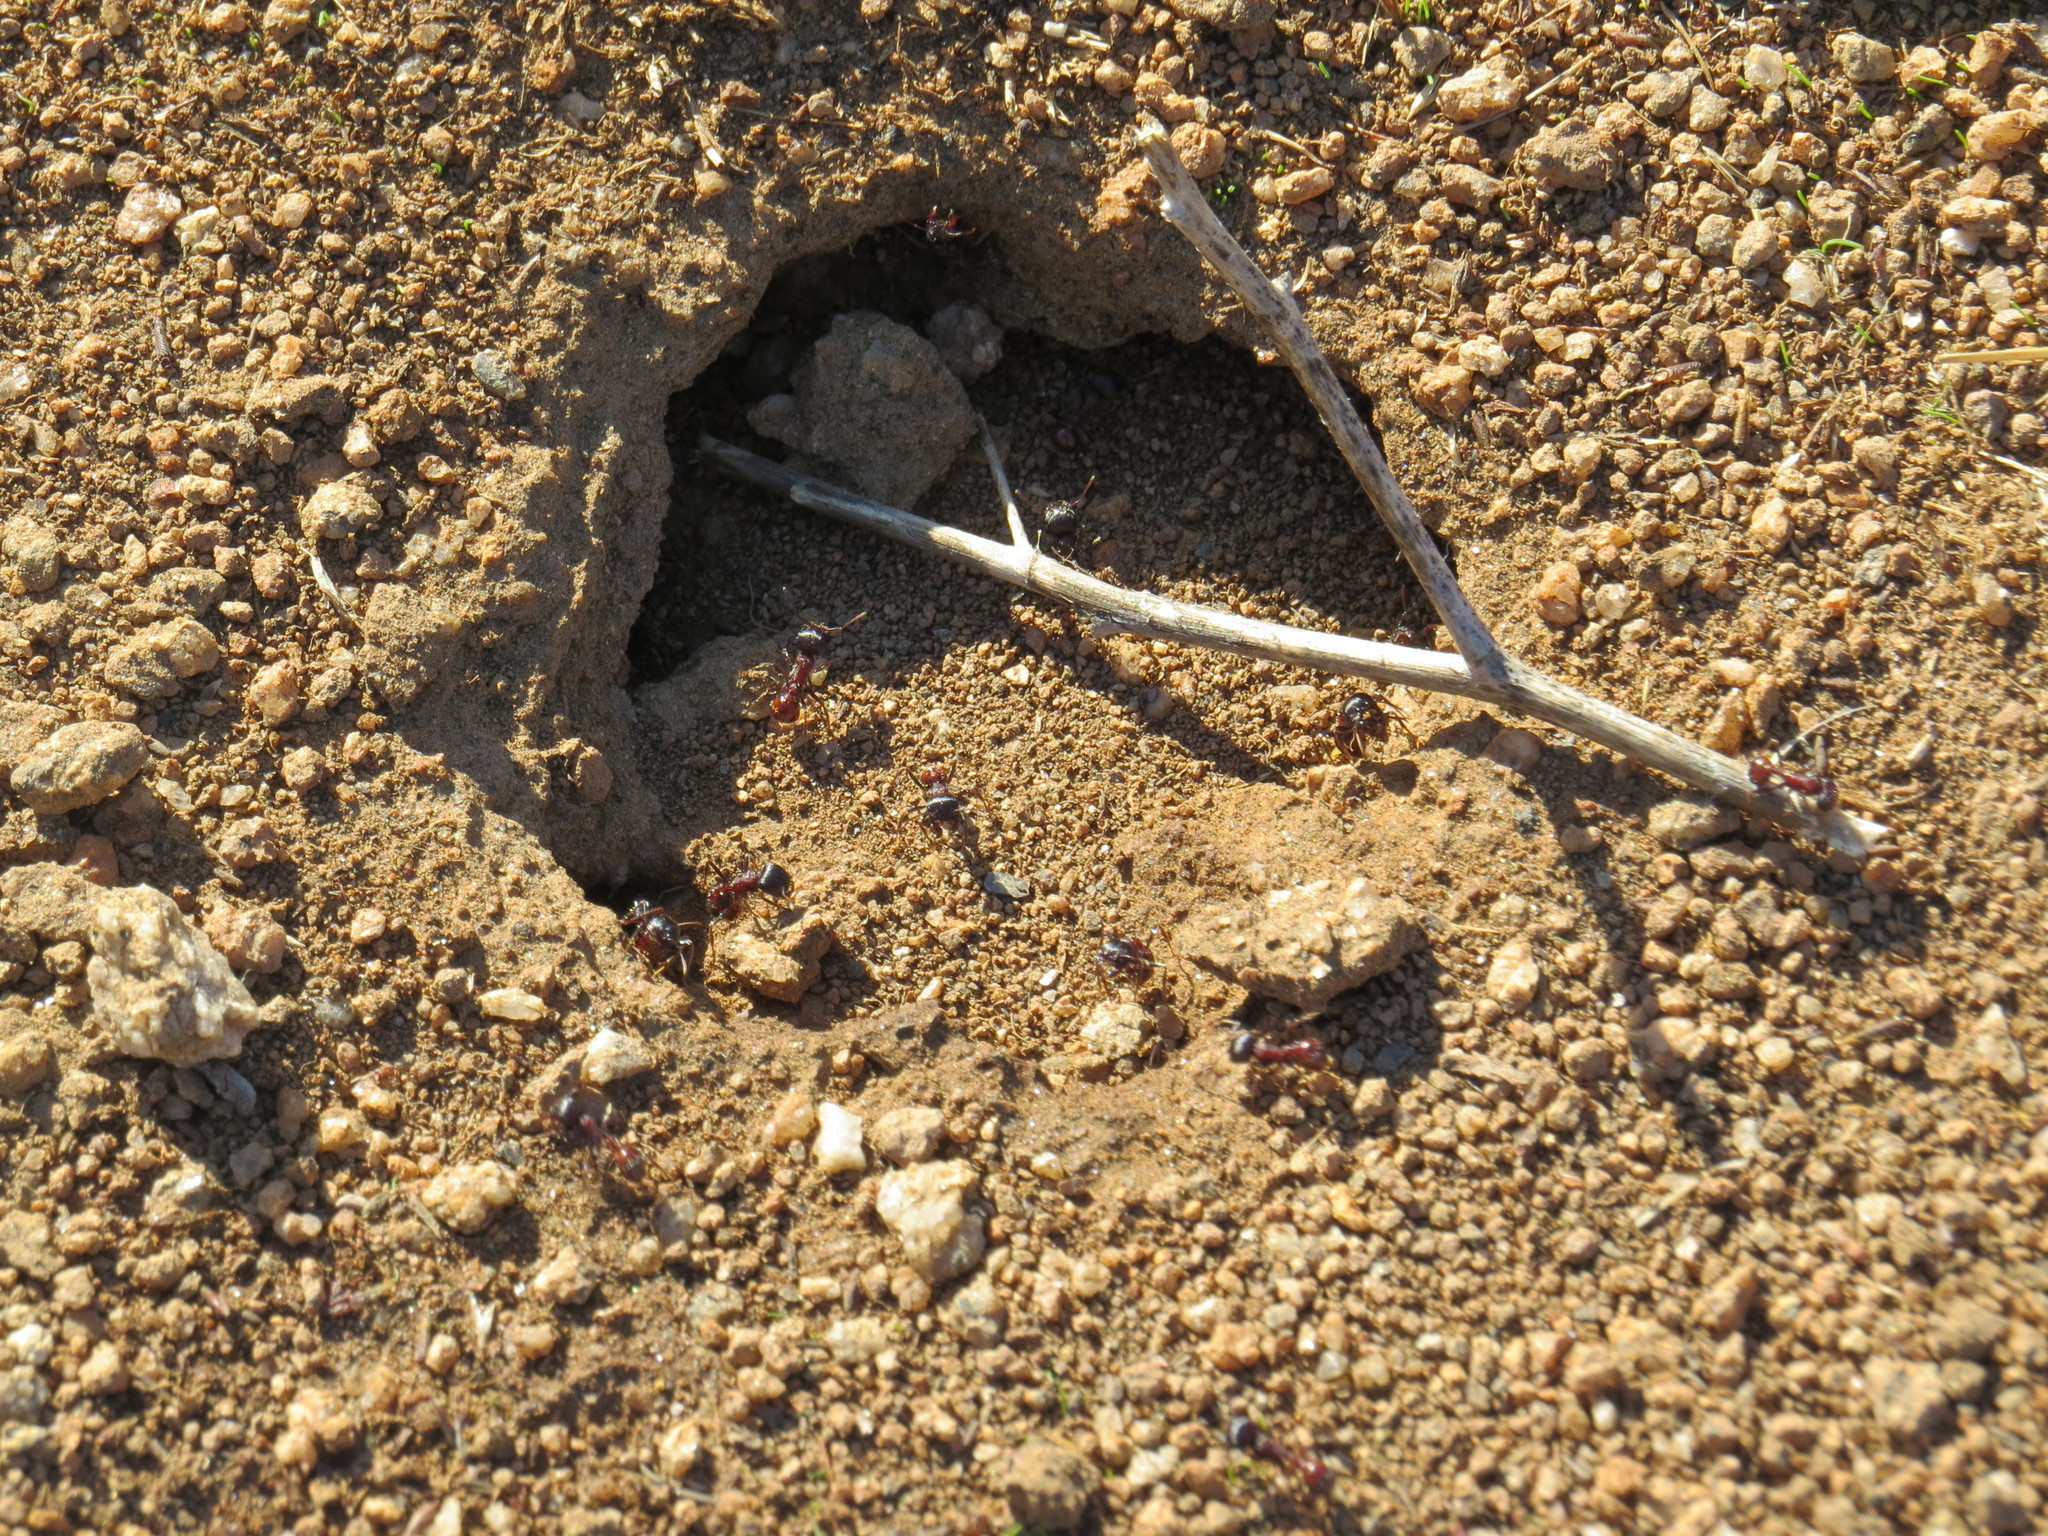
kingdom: Animalia
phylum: Arthropoda
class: Insecta
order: Hymenoptera
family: Formicidae
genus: Pogonomyrmex
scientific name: Pogonomyrmex rugosus
